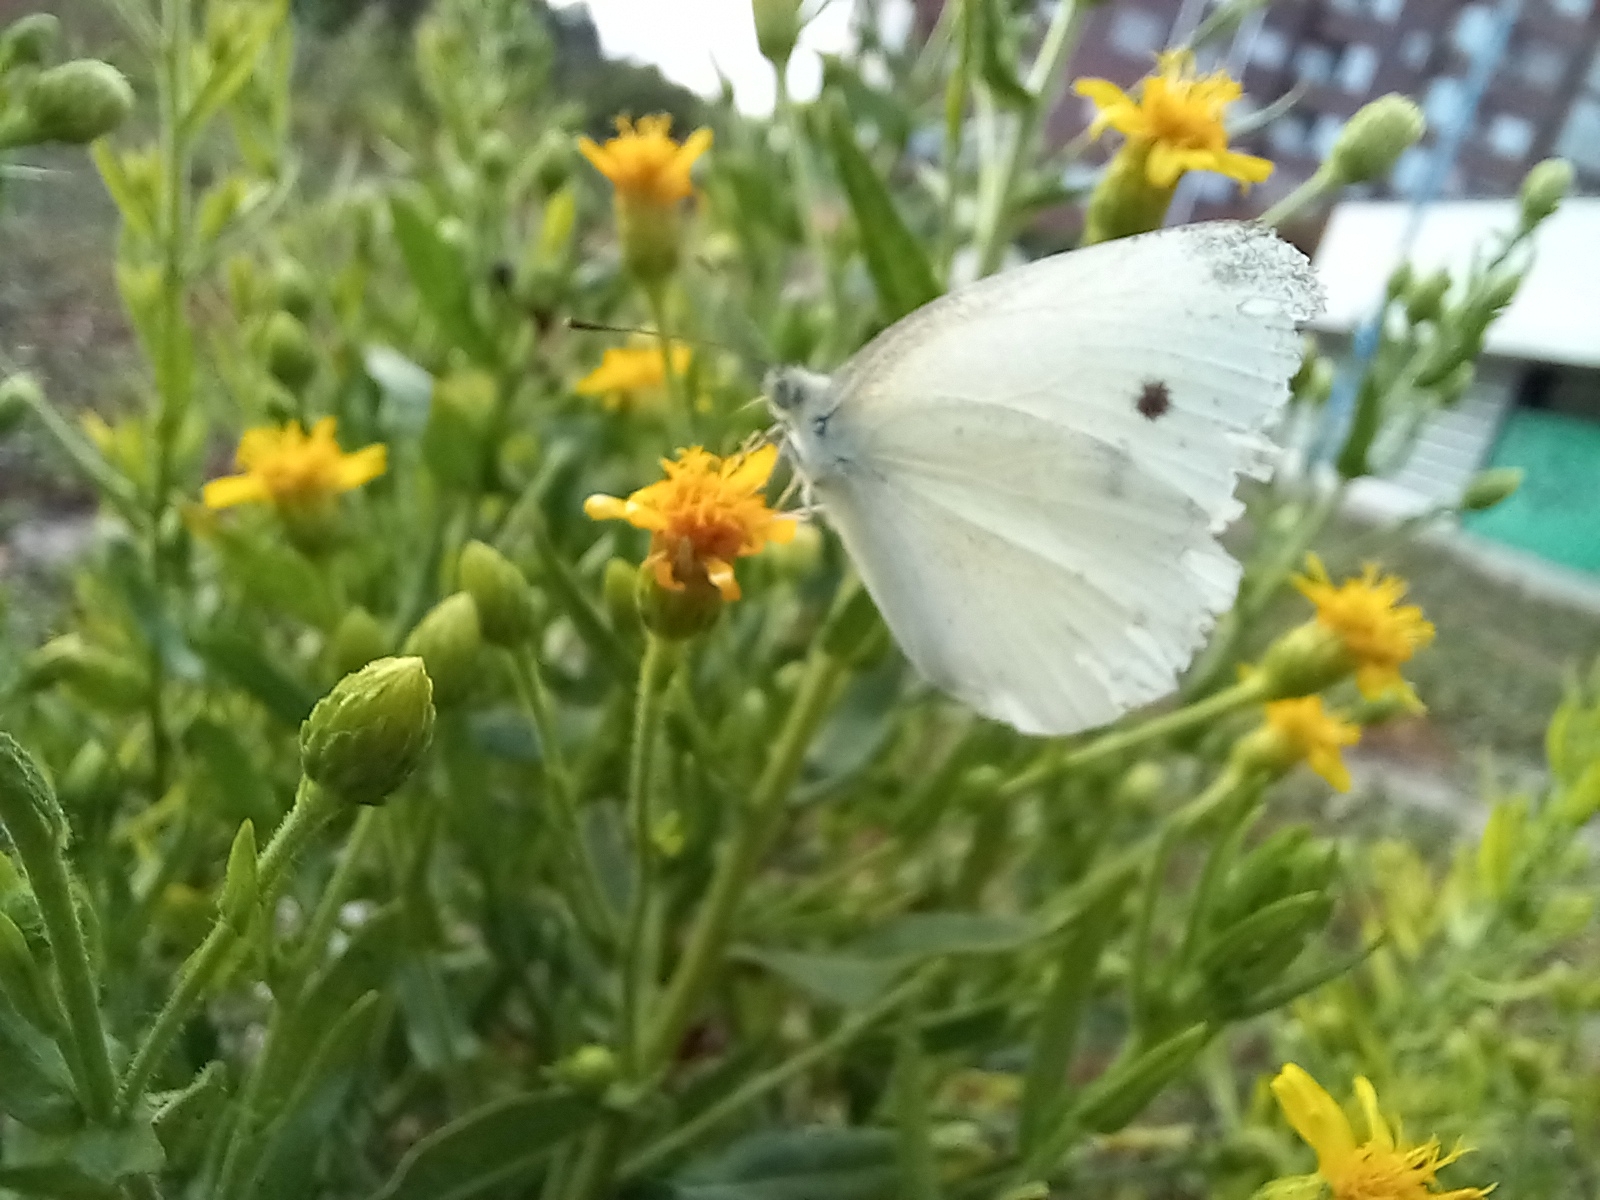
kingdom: Animalia
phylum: Arthropoda
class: Insecta
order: Lepidoptera
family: Pieridae
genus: Pieris
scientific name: Pieris rapae
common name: Small white
